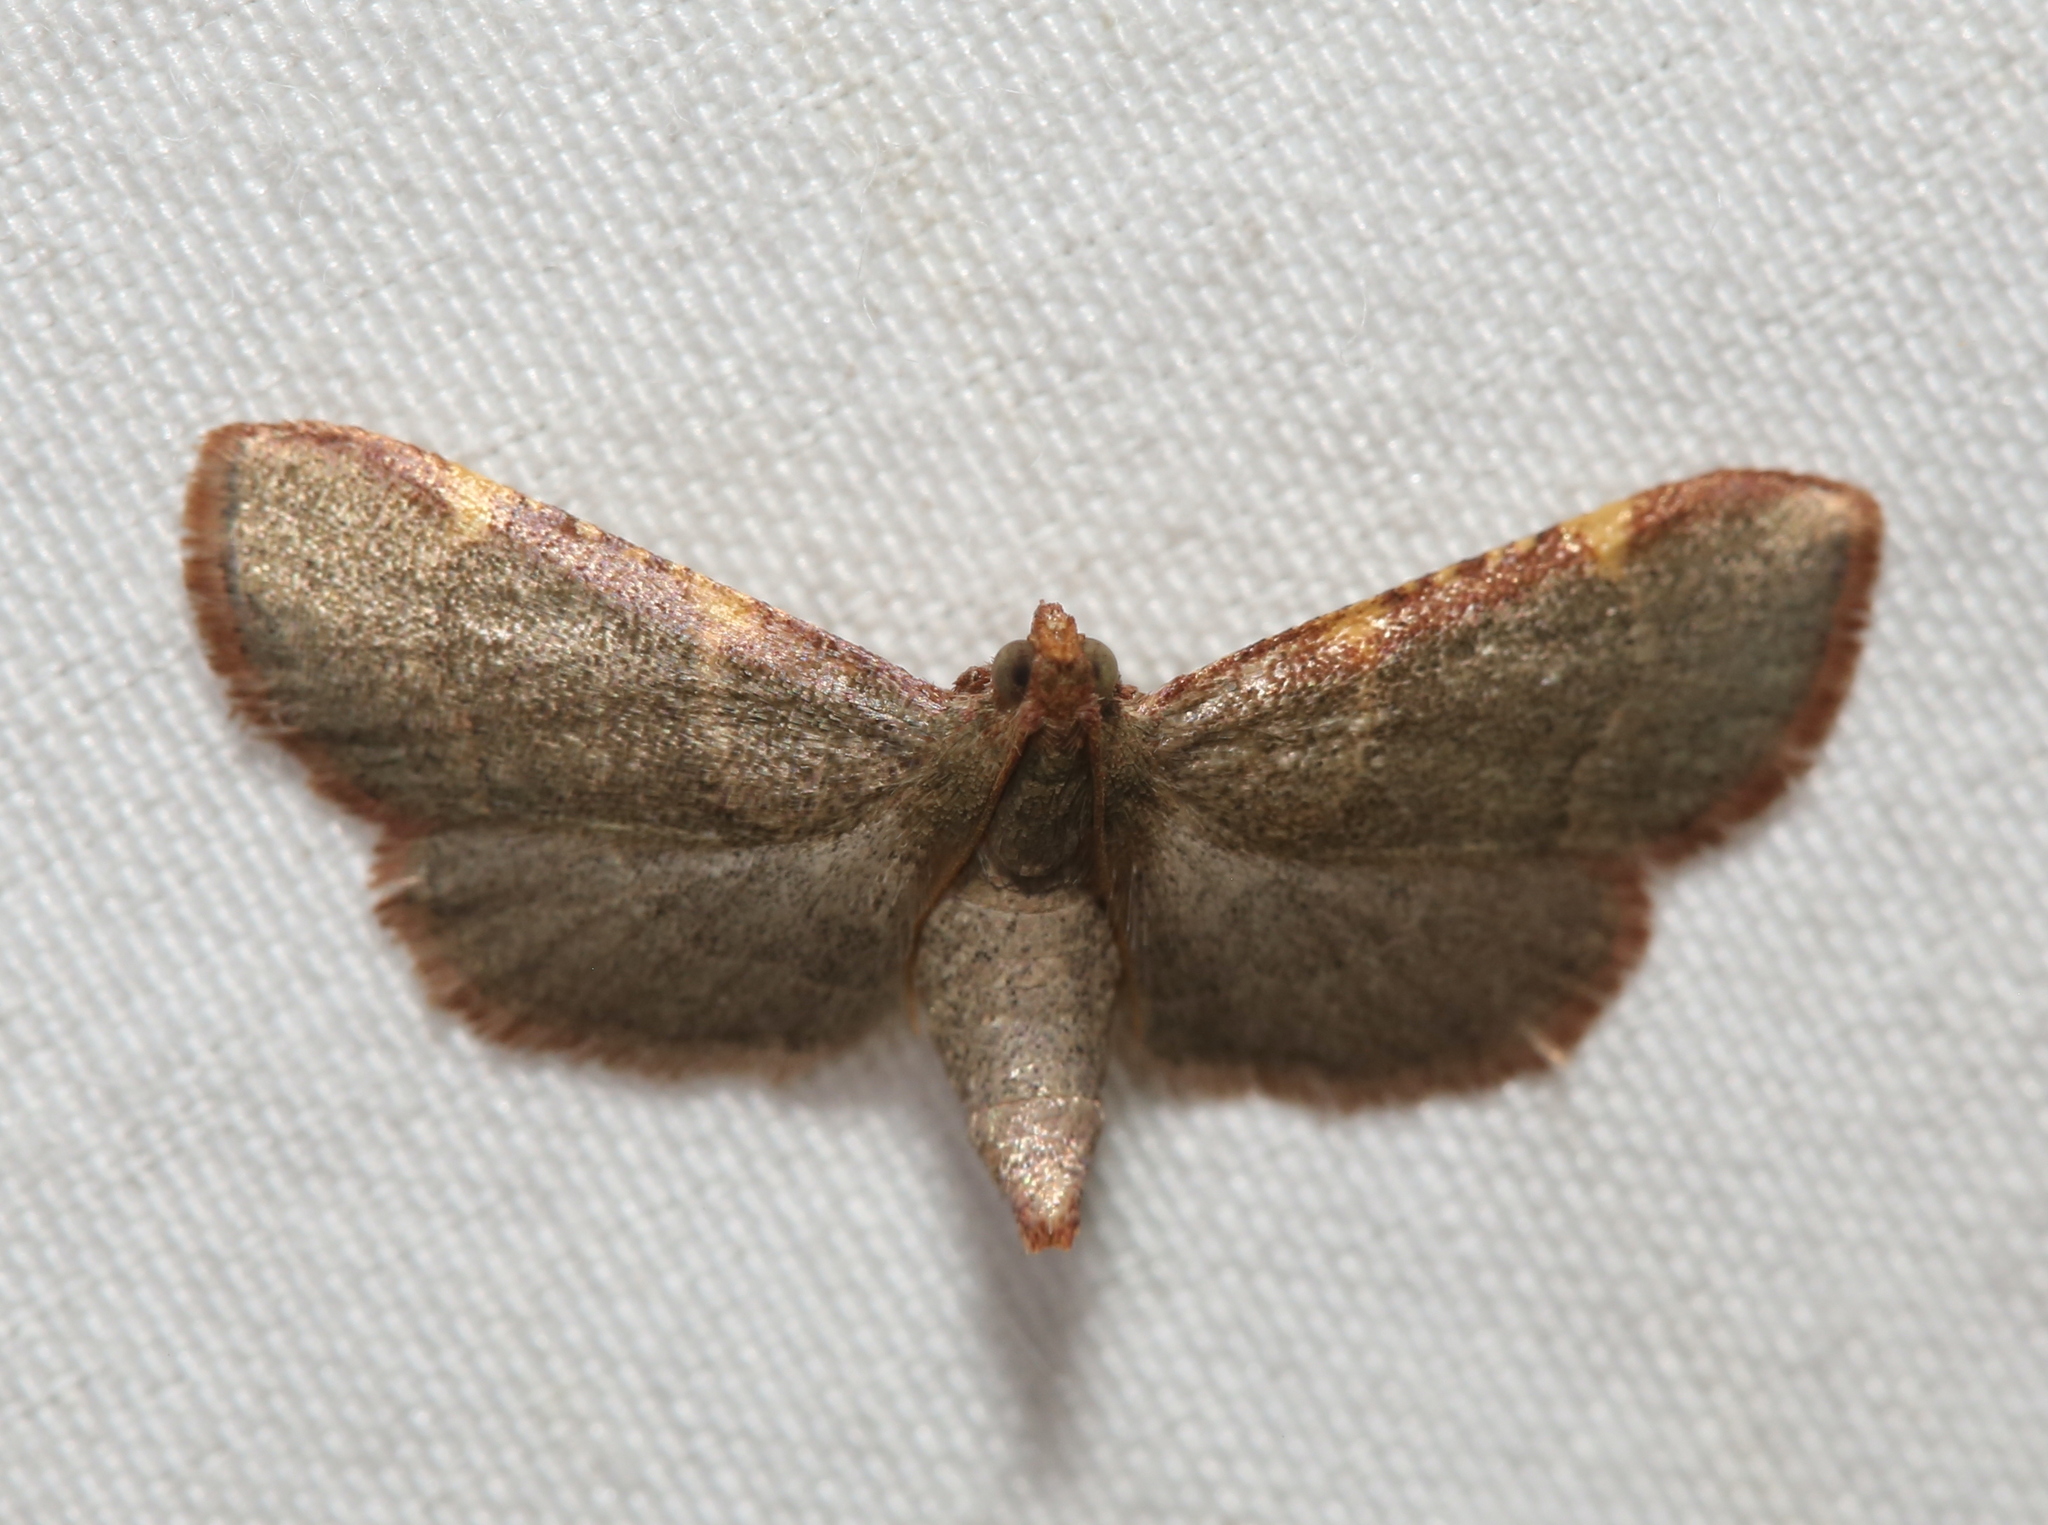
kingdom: Animalia
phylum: Arthropoda
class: Insecta
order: Lepidoptera
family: Pyralidae
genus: Hypsopygia
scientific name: Hypsopygia binodulalis
